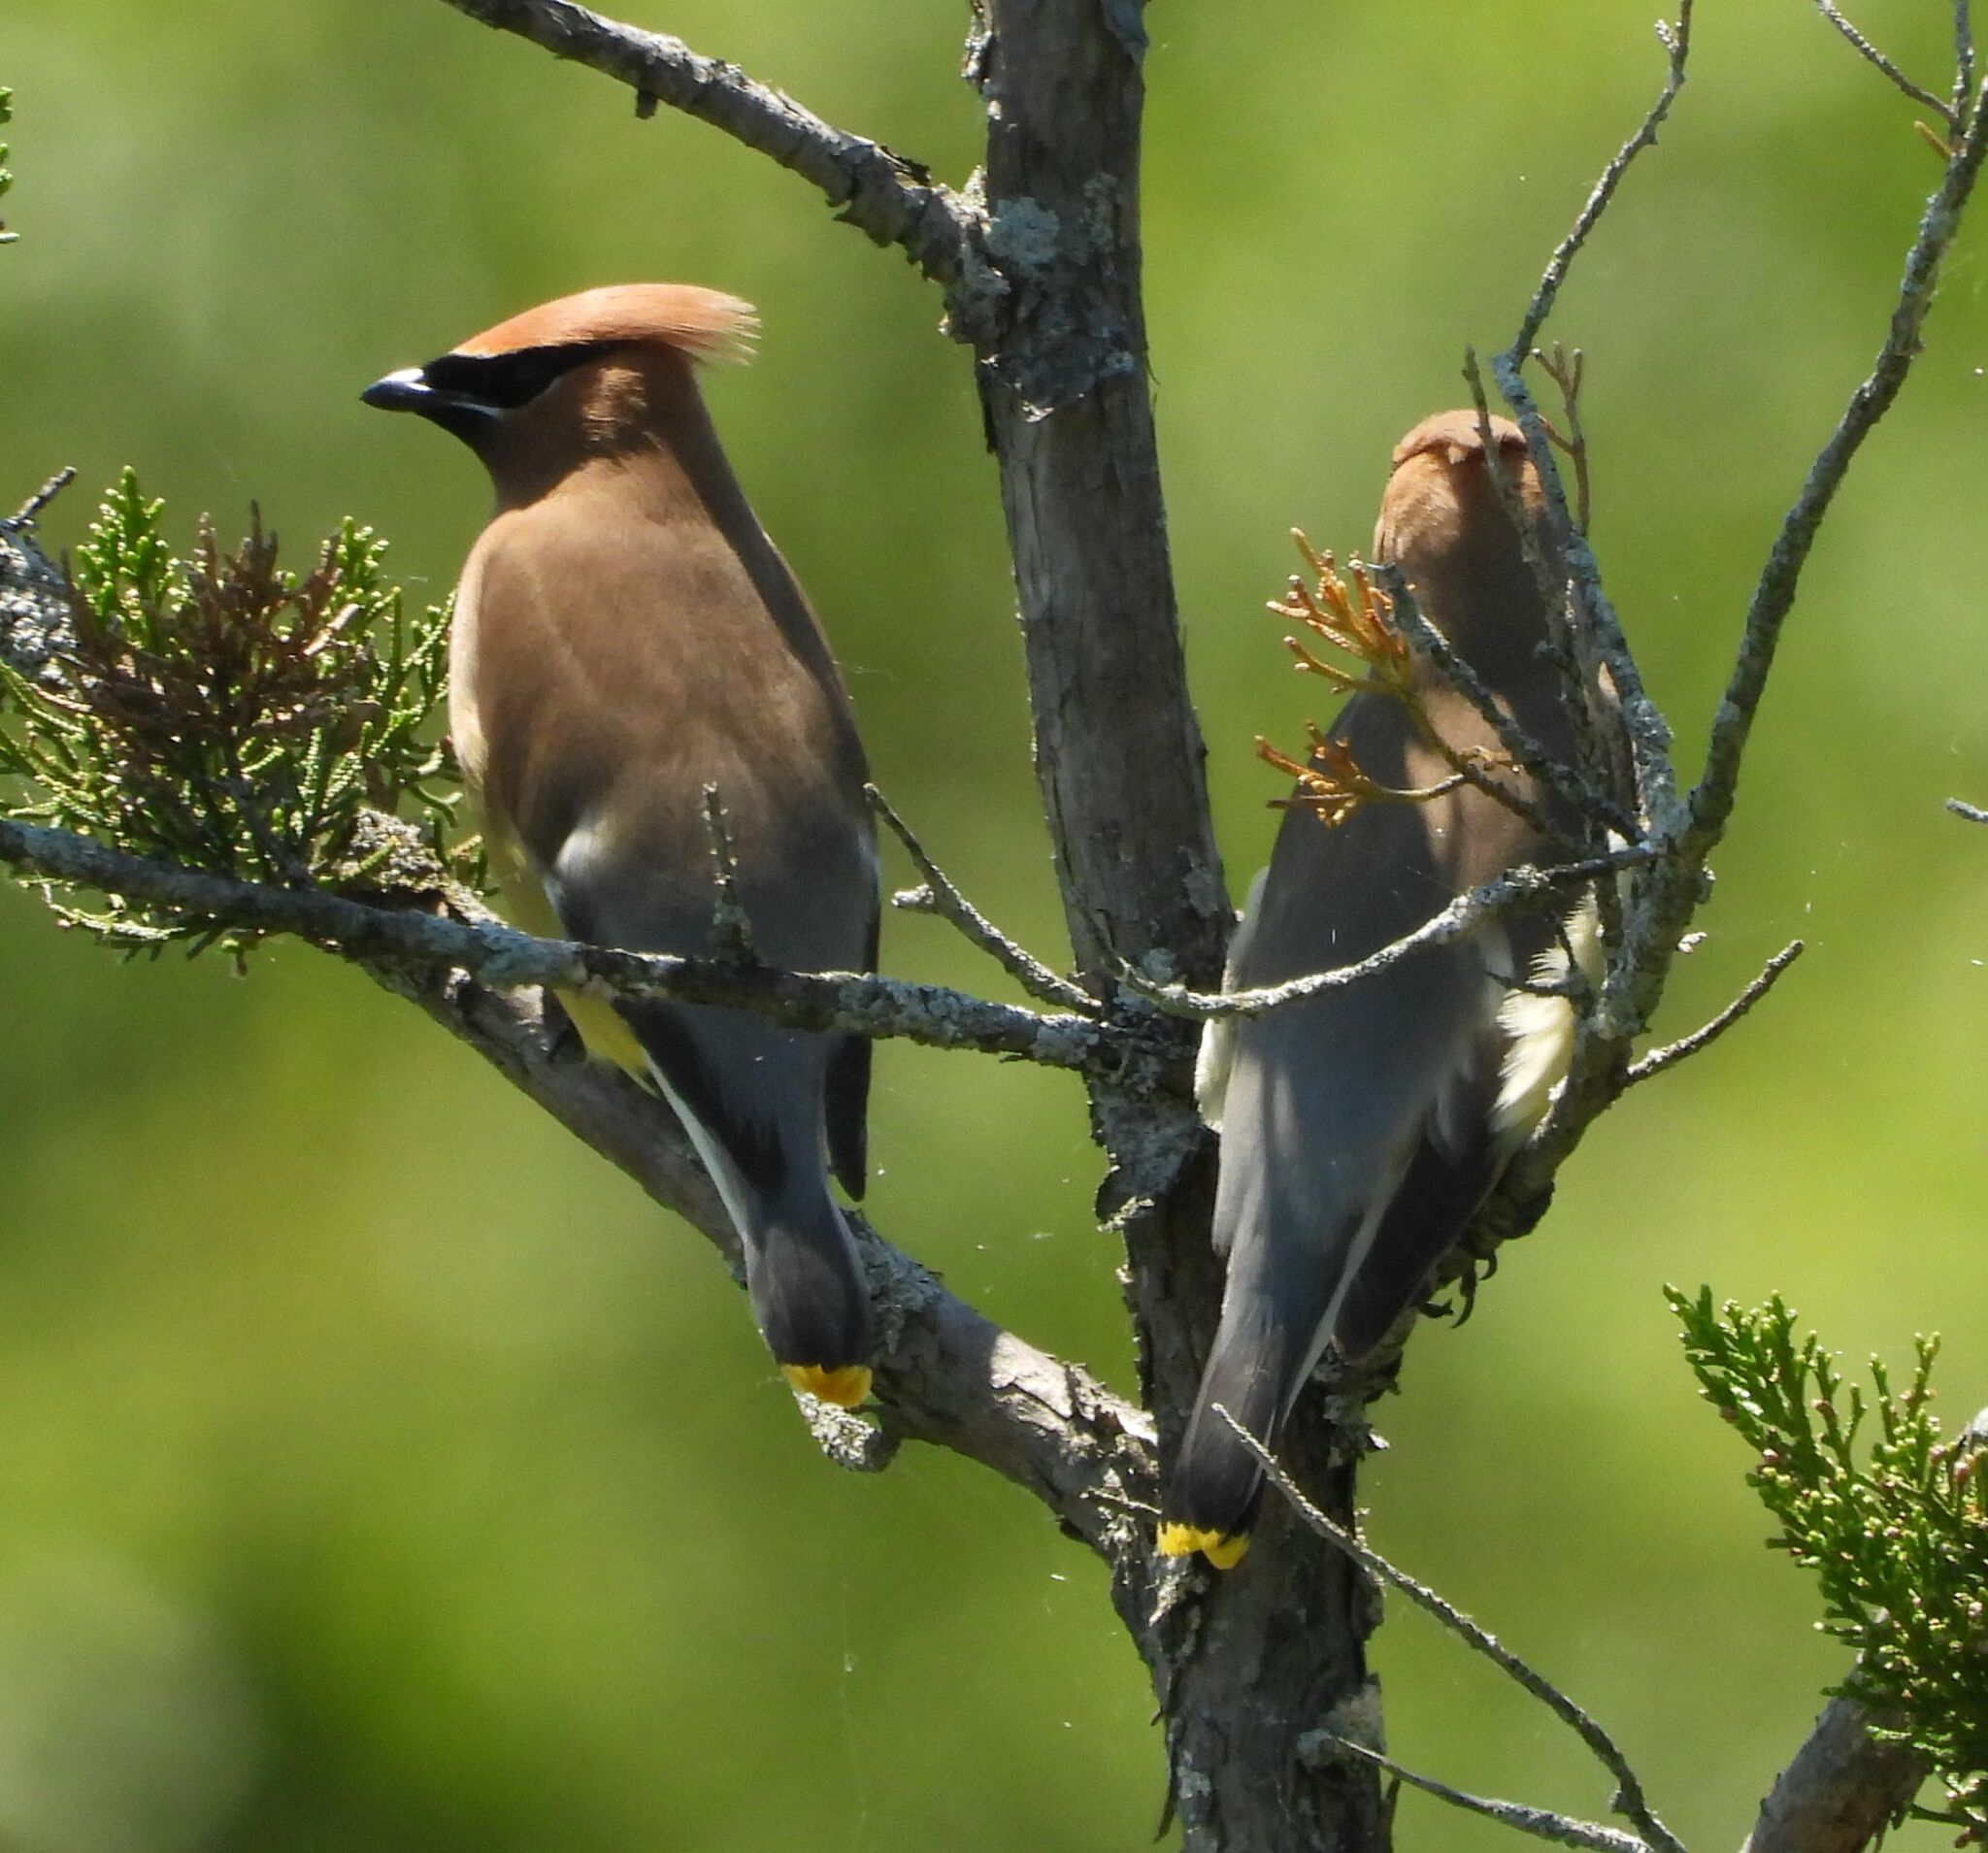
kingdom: Animalia
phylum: Chordata
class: Aves
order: Passeriformes
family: Bombycillidae
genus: Bombycilla
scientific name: Bombycilla cedrorum
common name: Cedar waxwing
